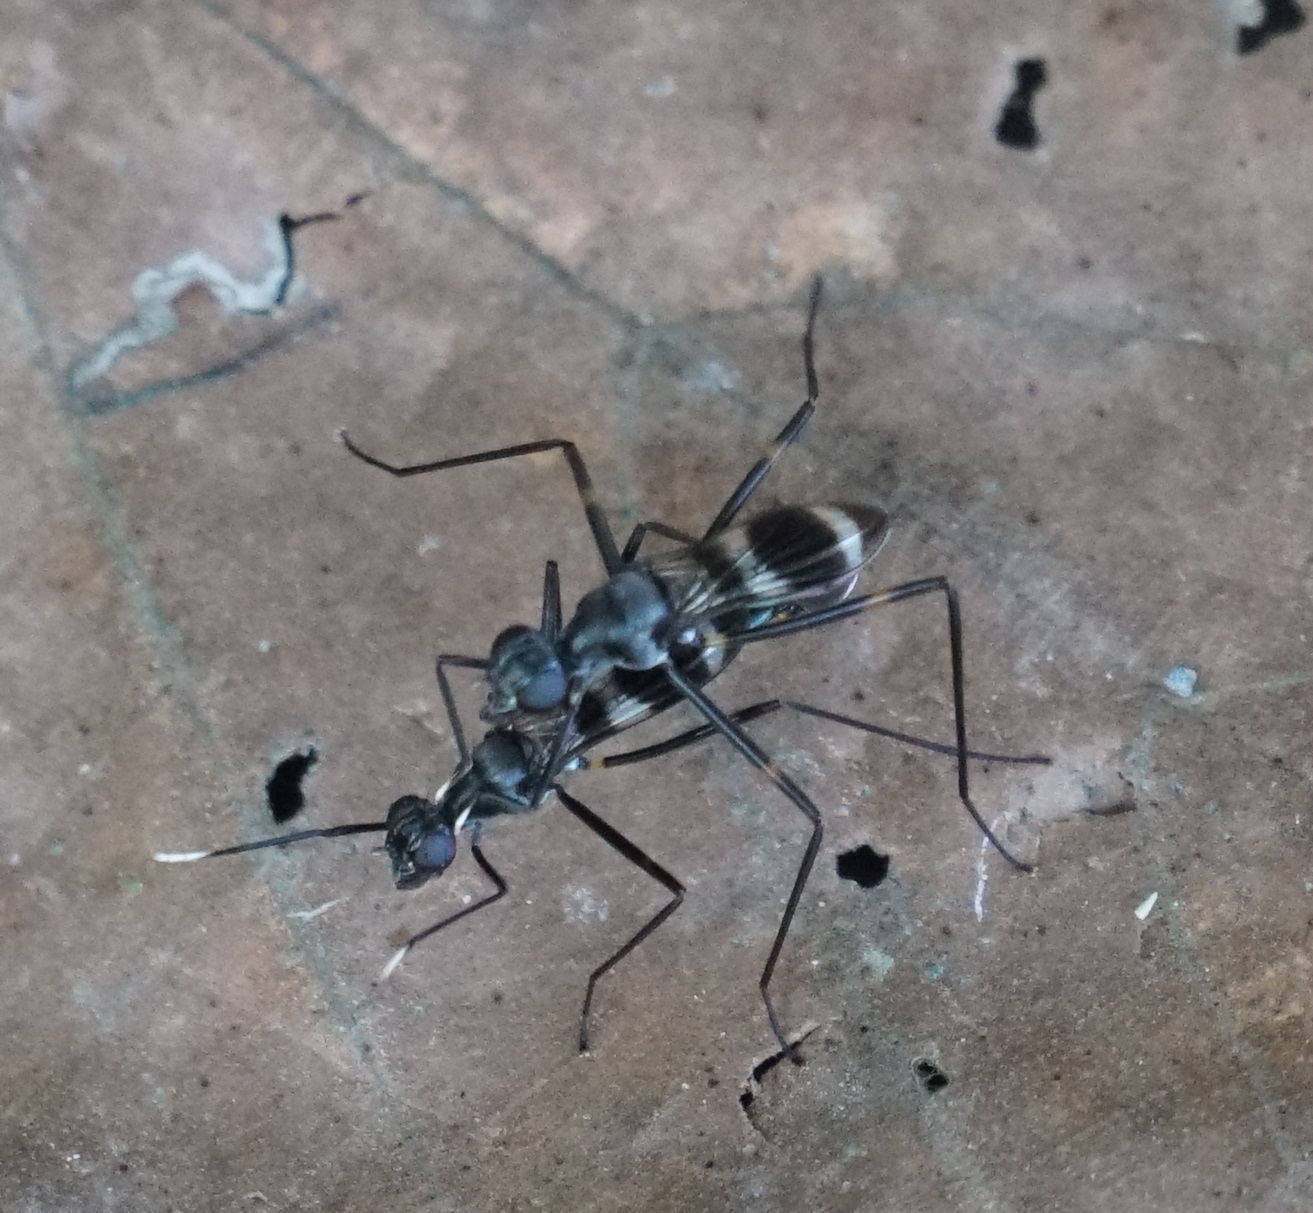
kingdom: Animalia
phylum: Arthropoda
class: Insecta
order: Diptera
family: Micropezidae
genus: Mimegralla
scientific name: Mimegralla australica
